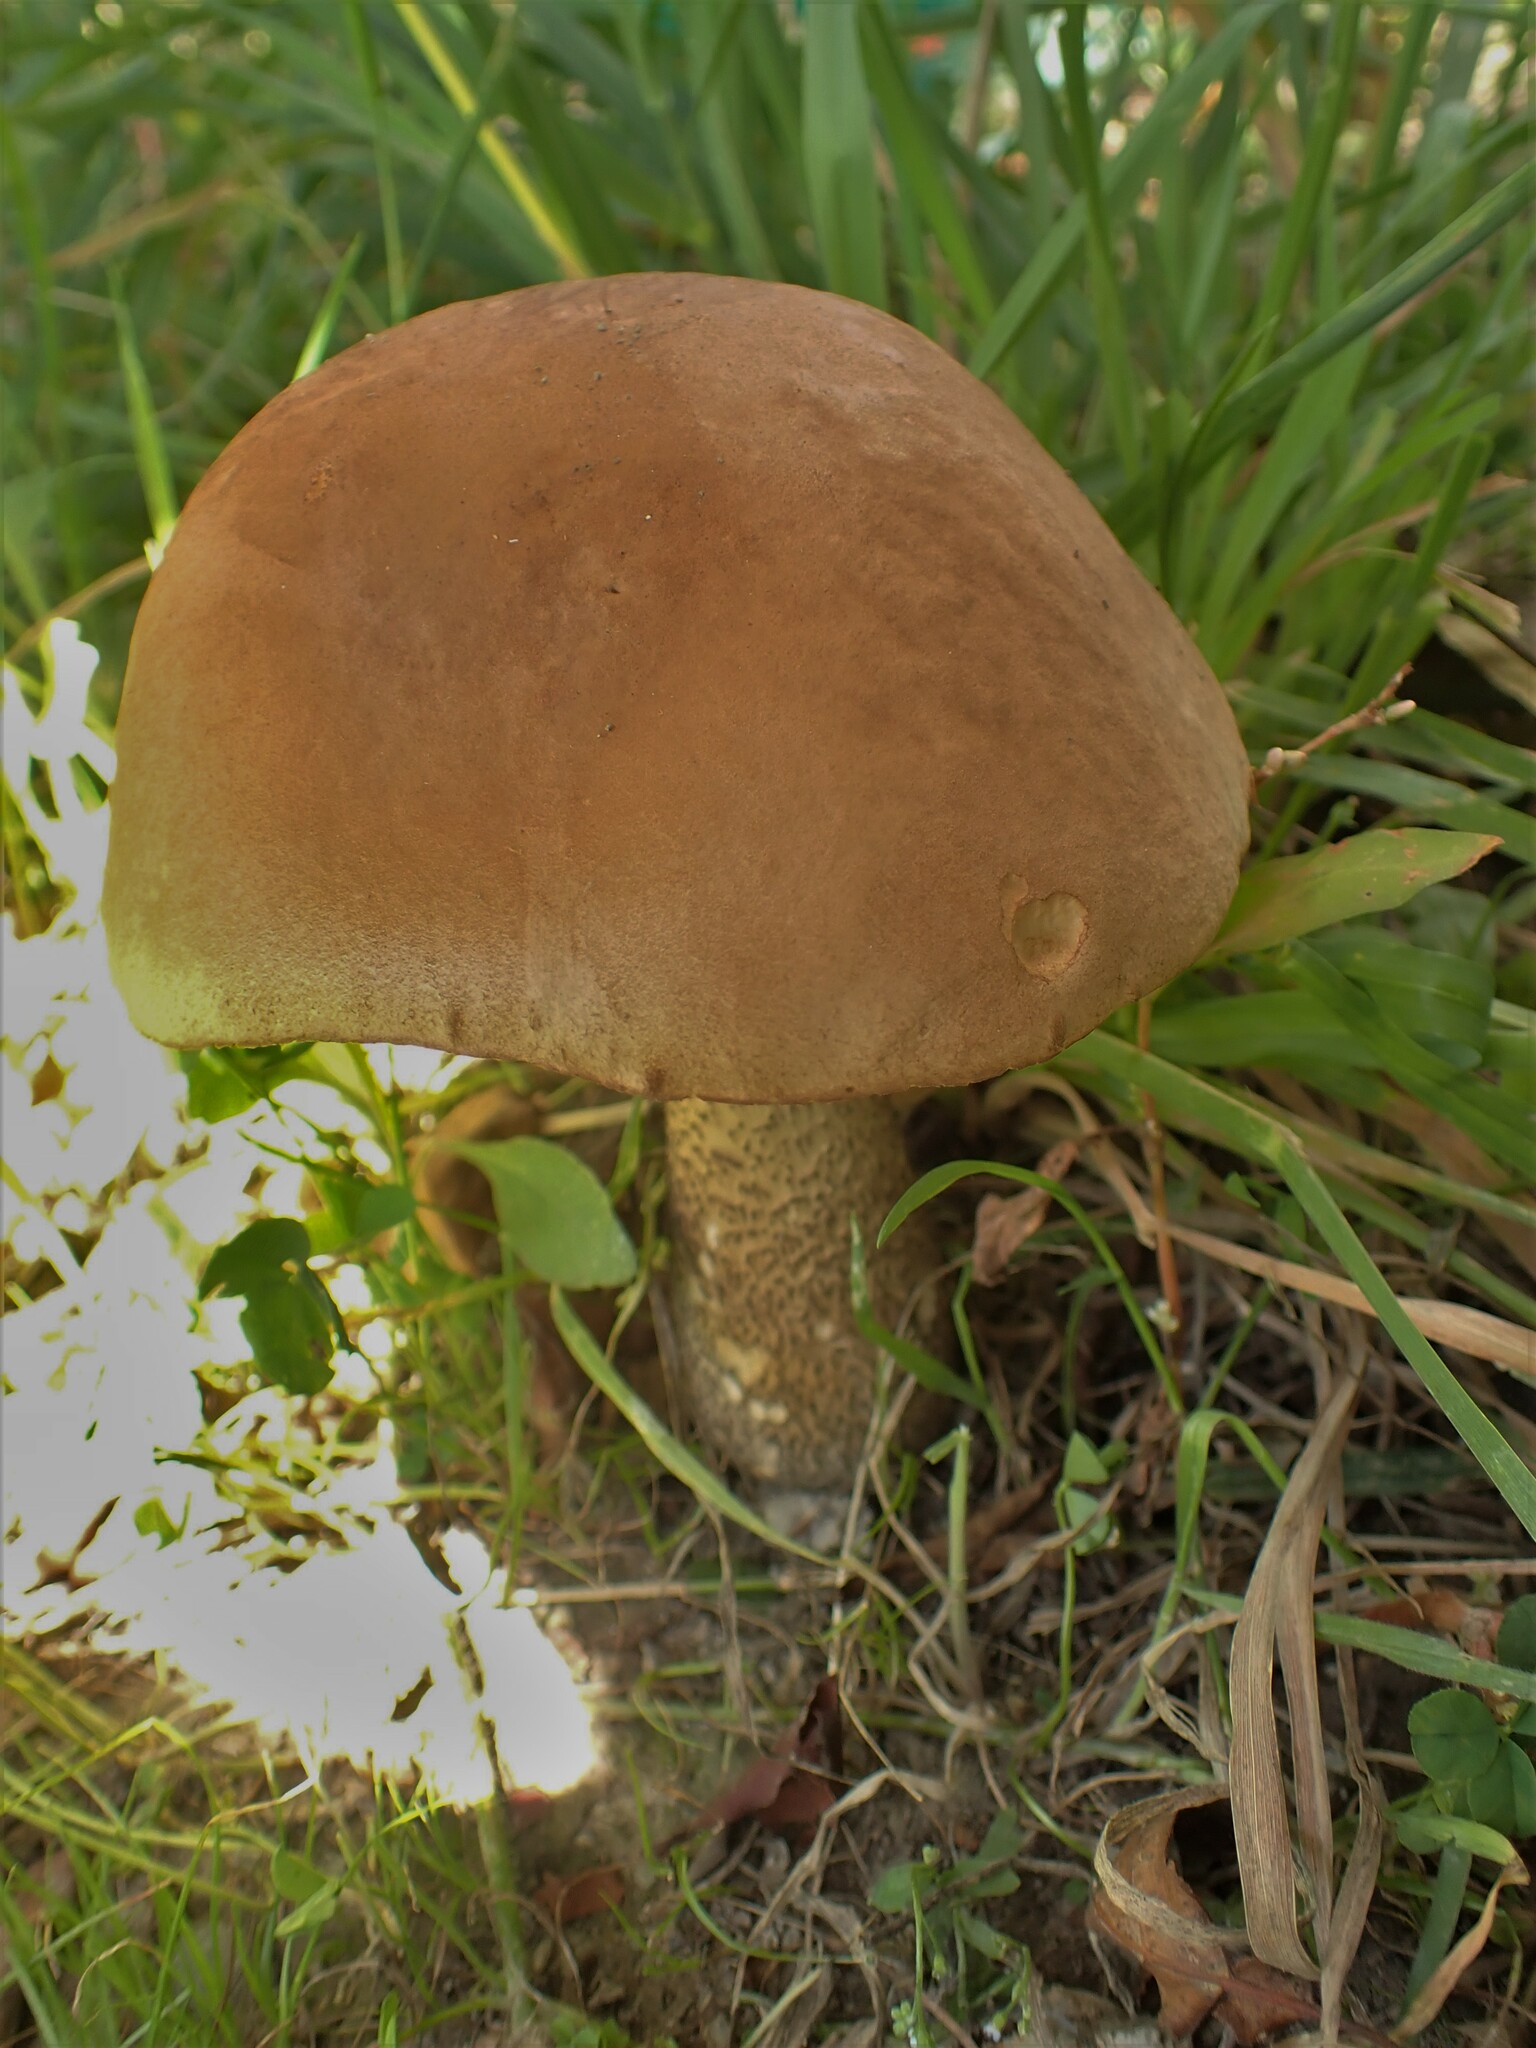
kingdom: Fungi
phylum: Basidiomycota
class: Agaricomycetes
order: Boletales
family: Boletaceae
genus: Leccinum
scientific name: Leccinum scabrum
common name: Blushing bolete
